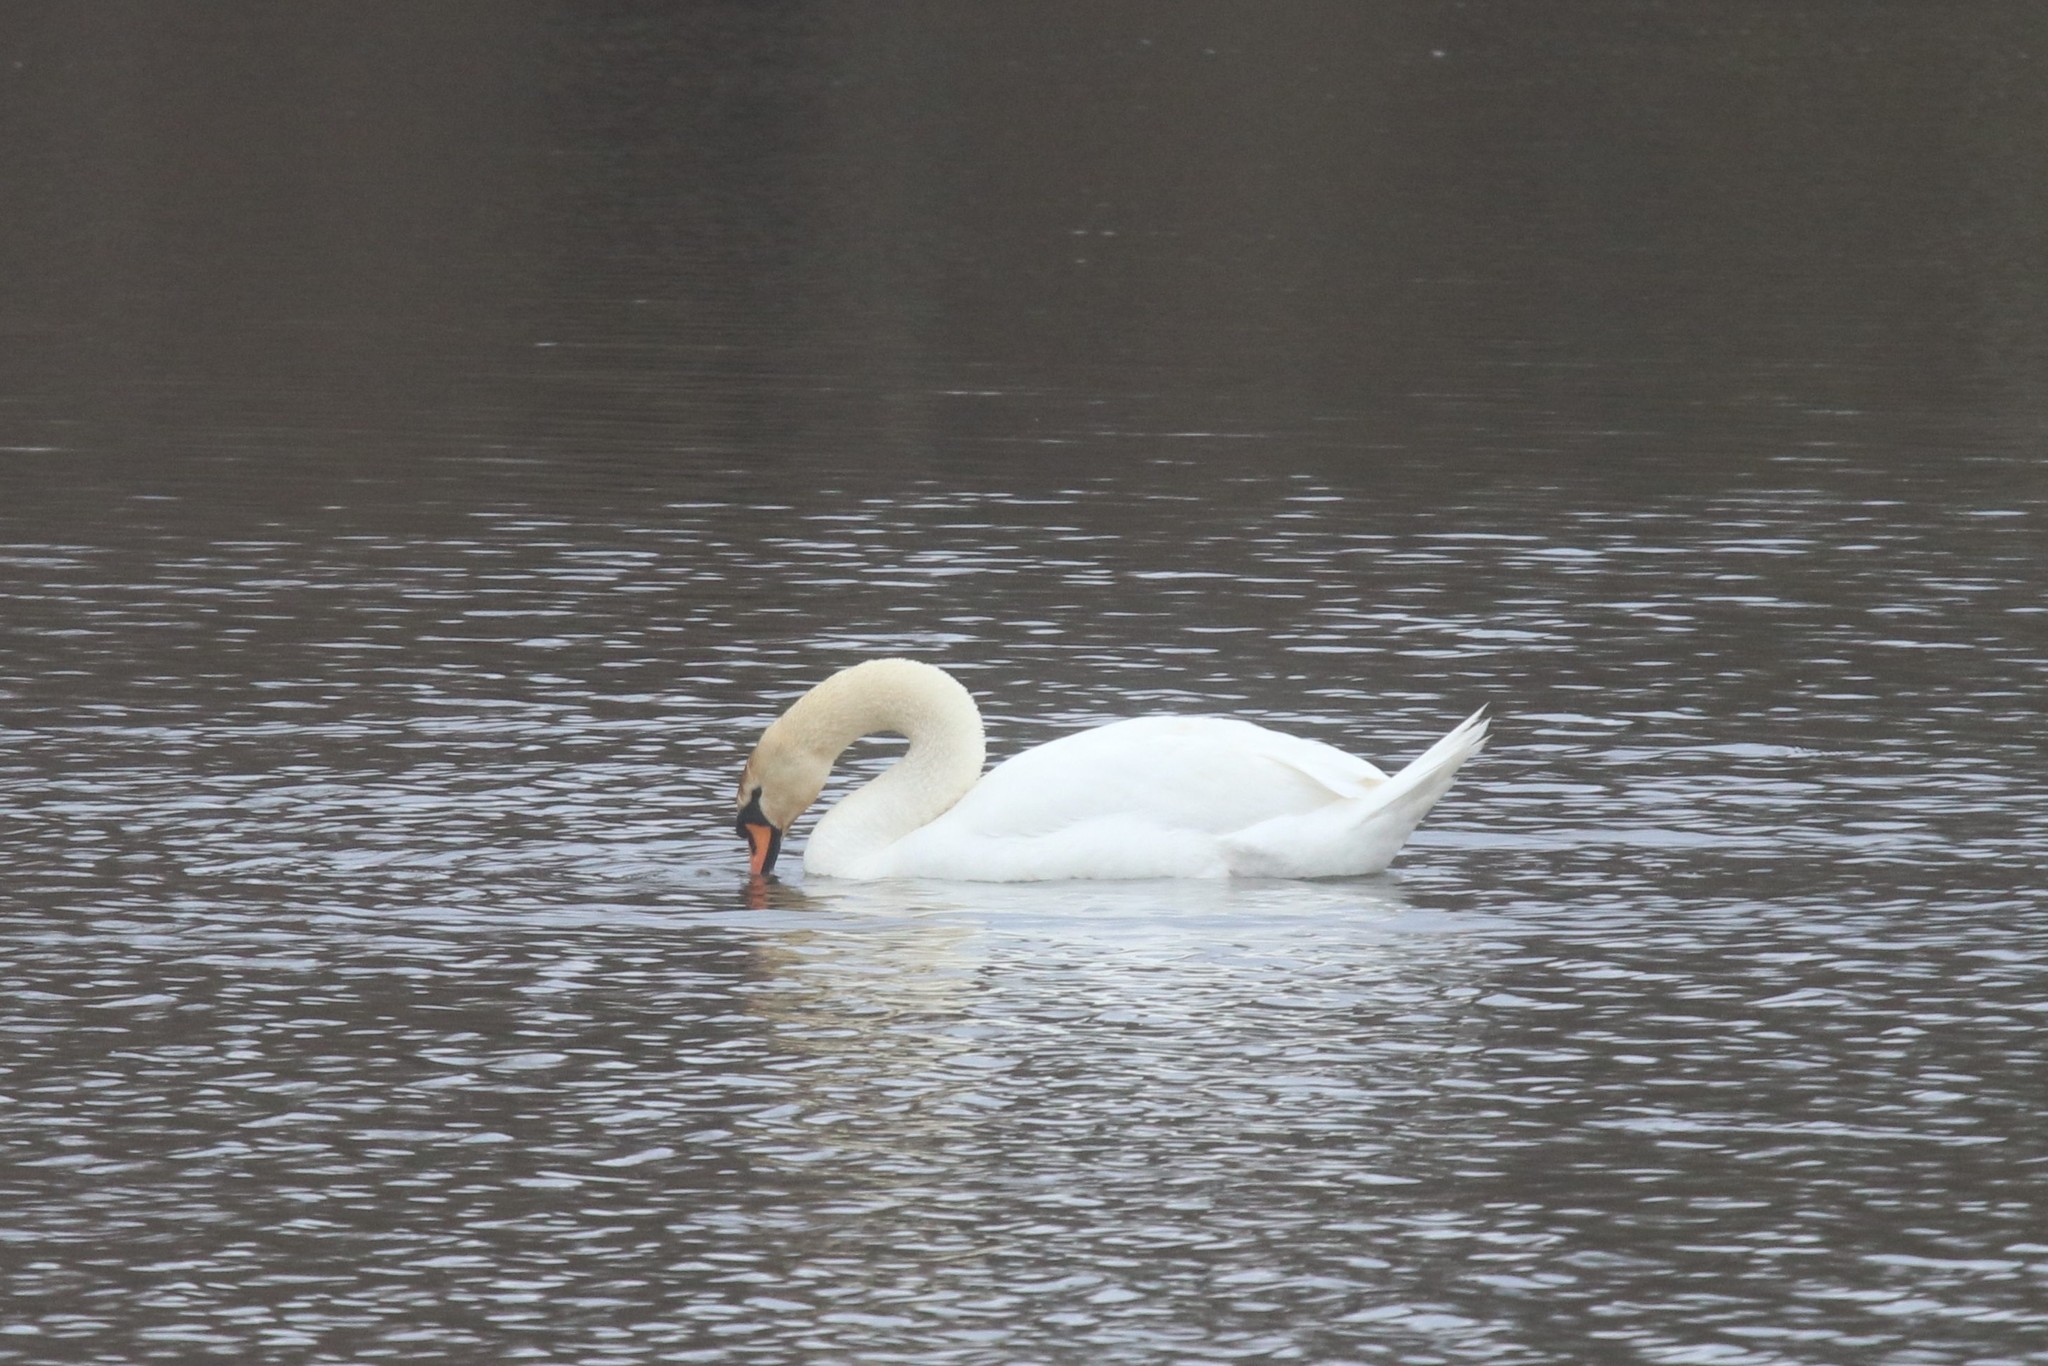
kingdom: Animalia
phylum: Chordata
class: Aves
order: Anseriformes
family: Anatidae
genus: Cygnus
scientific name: Cygnus olor
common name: Mute swan
